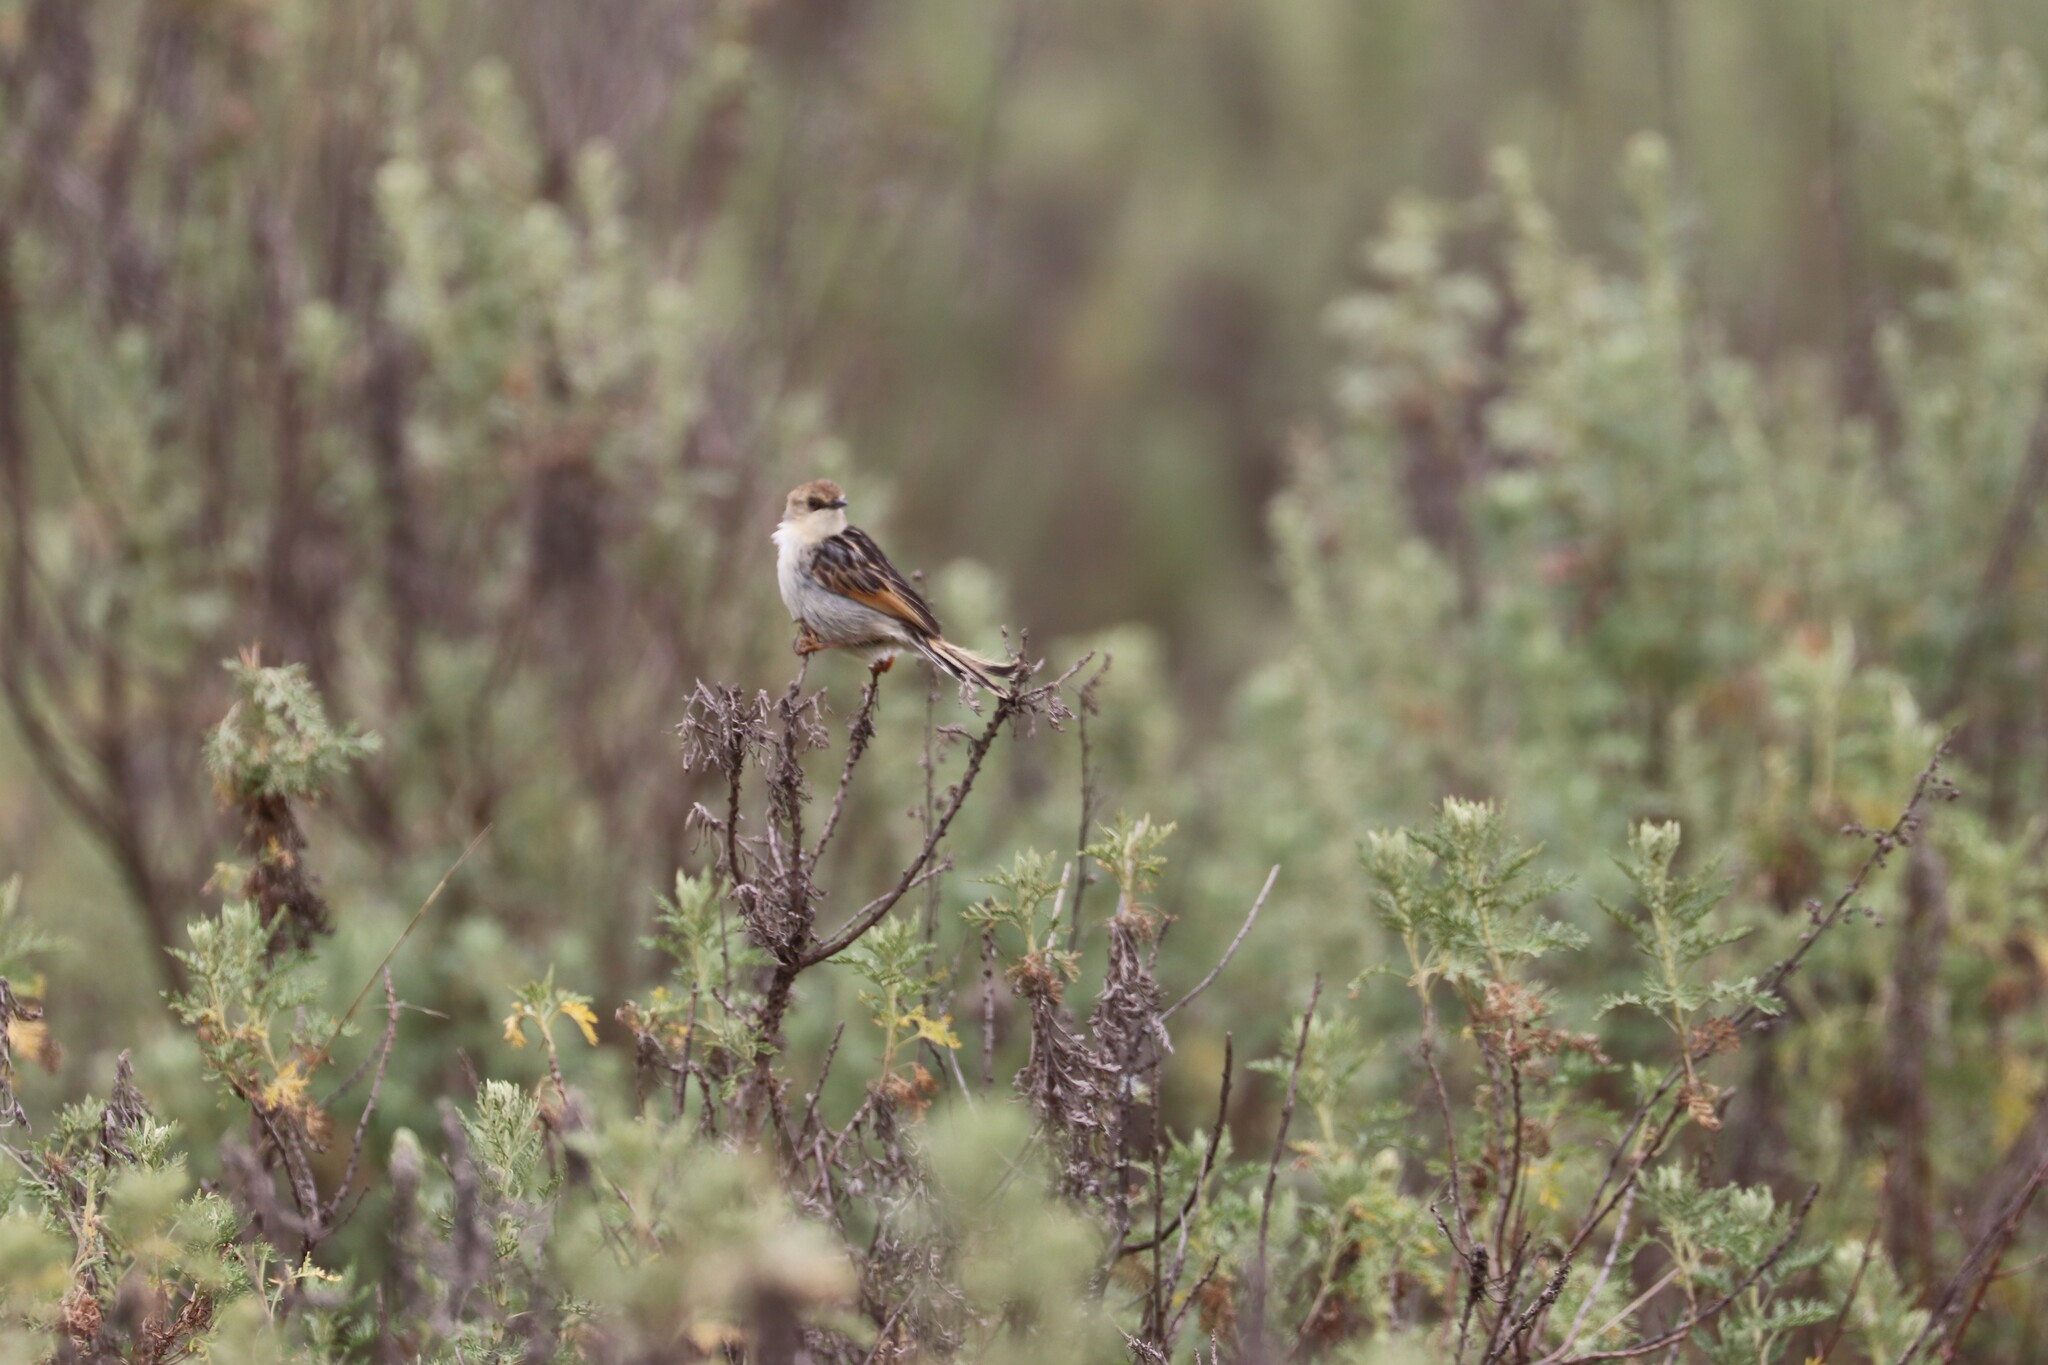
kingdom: Animalia
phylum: Chordata
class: Aves
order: Passeriformes
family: Cisticolidae
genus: Cisticola
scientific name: Cisticola lugubris
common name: Ethiopian cisticola
